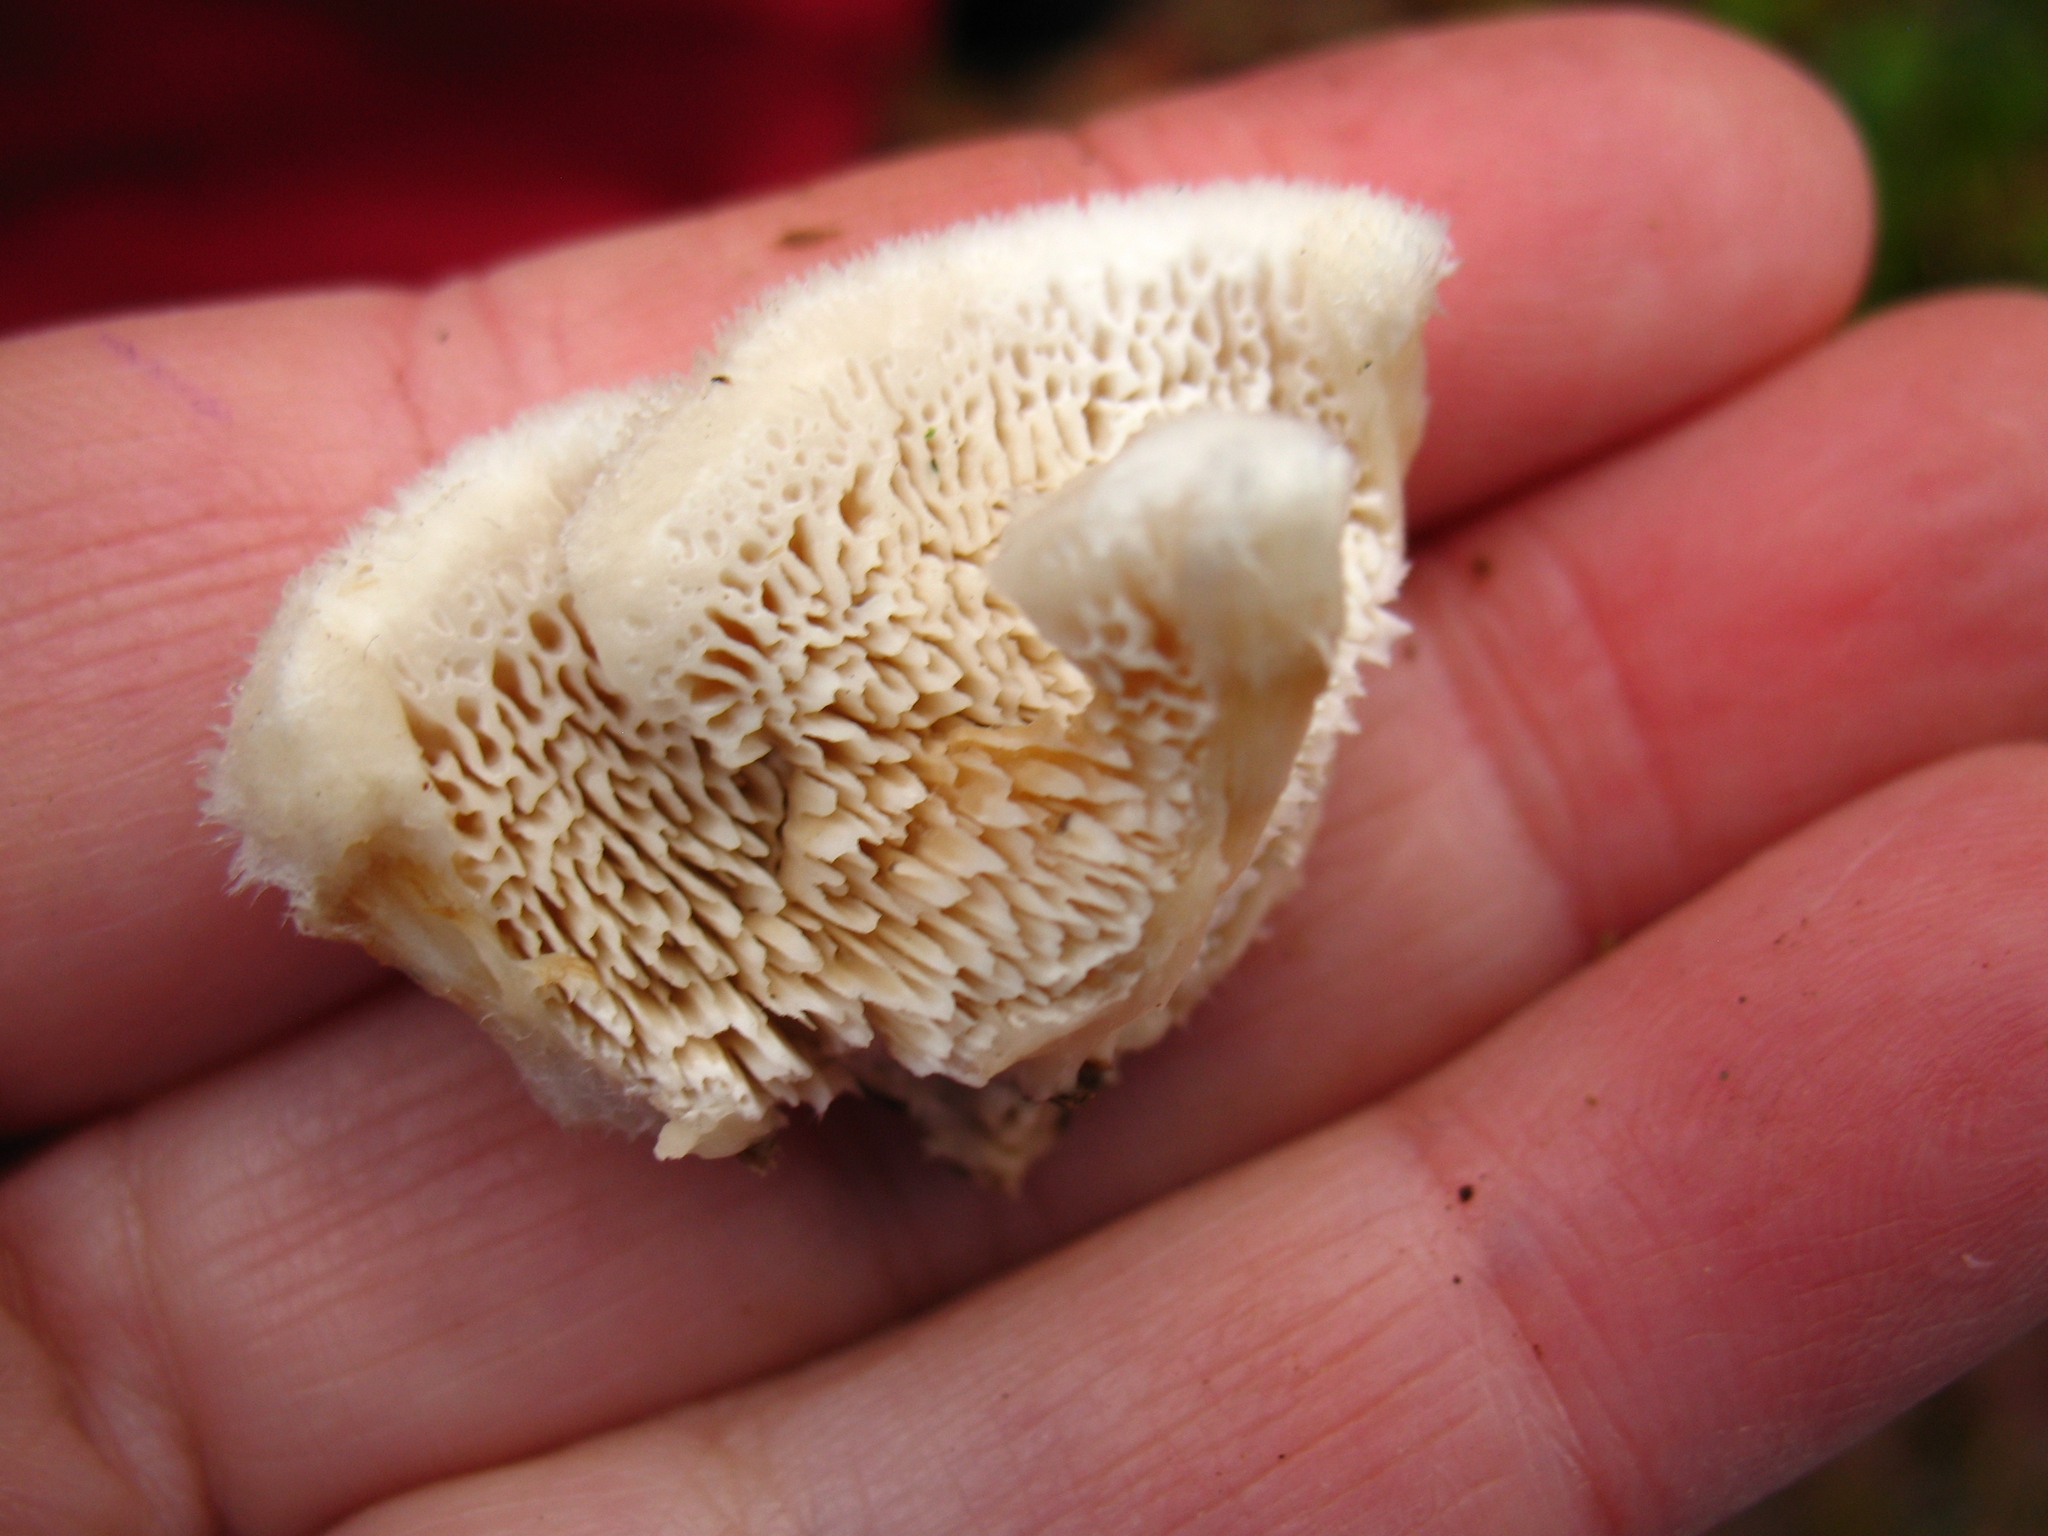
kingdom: Fungi
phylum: Basidiomycota
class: Agaricomycetes
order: Polyporales
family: Irpicaceae
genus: Trametopsis
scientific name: Trametopsis cervina
